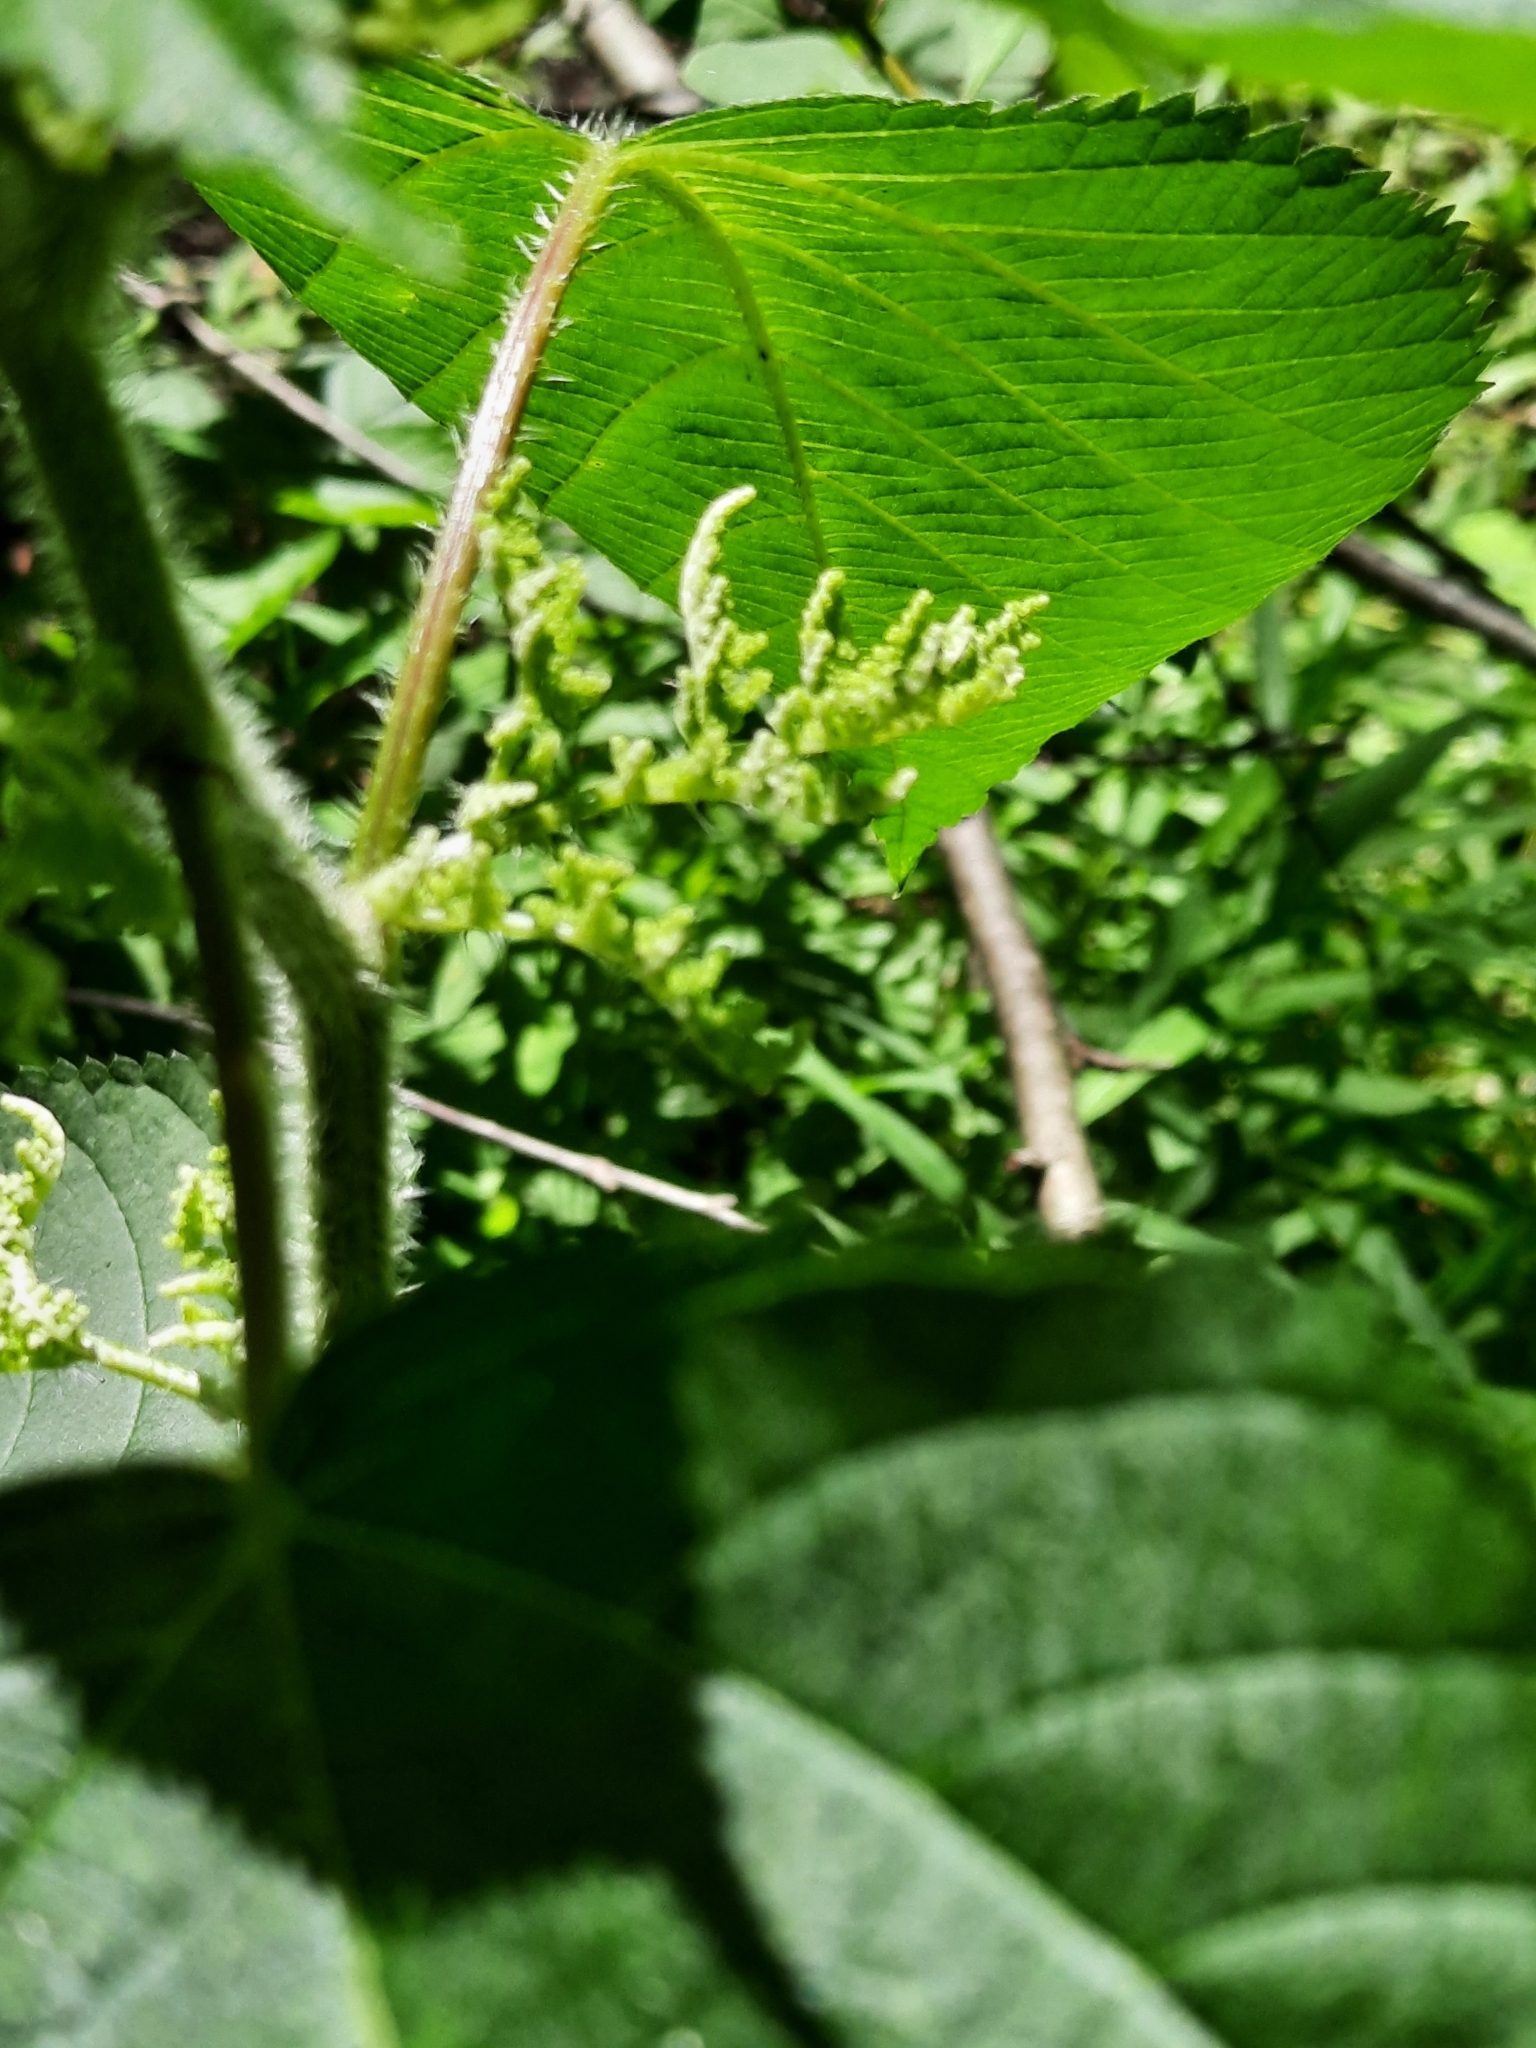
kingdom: Plantae
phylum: Tracheophyta
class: Magnoliopsida
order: Rosales
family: Urticaceae
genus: Laportea
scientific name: Laportea canadensis
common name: Canada nettle
